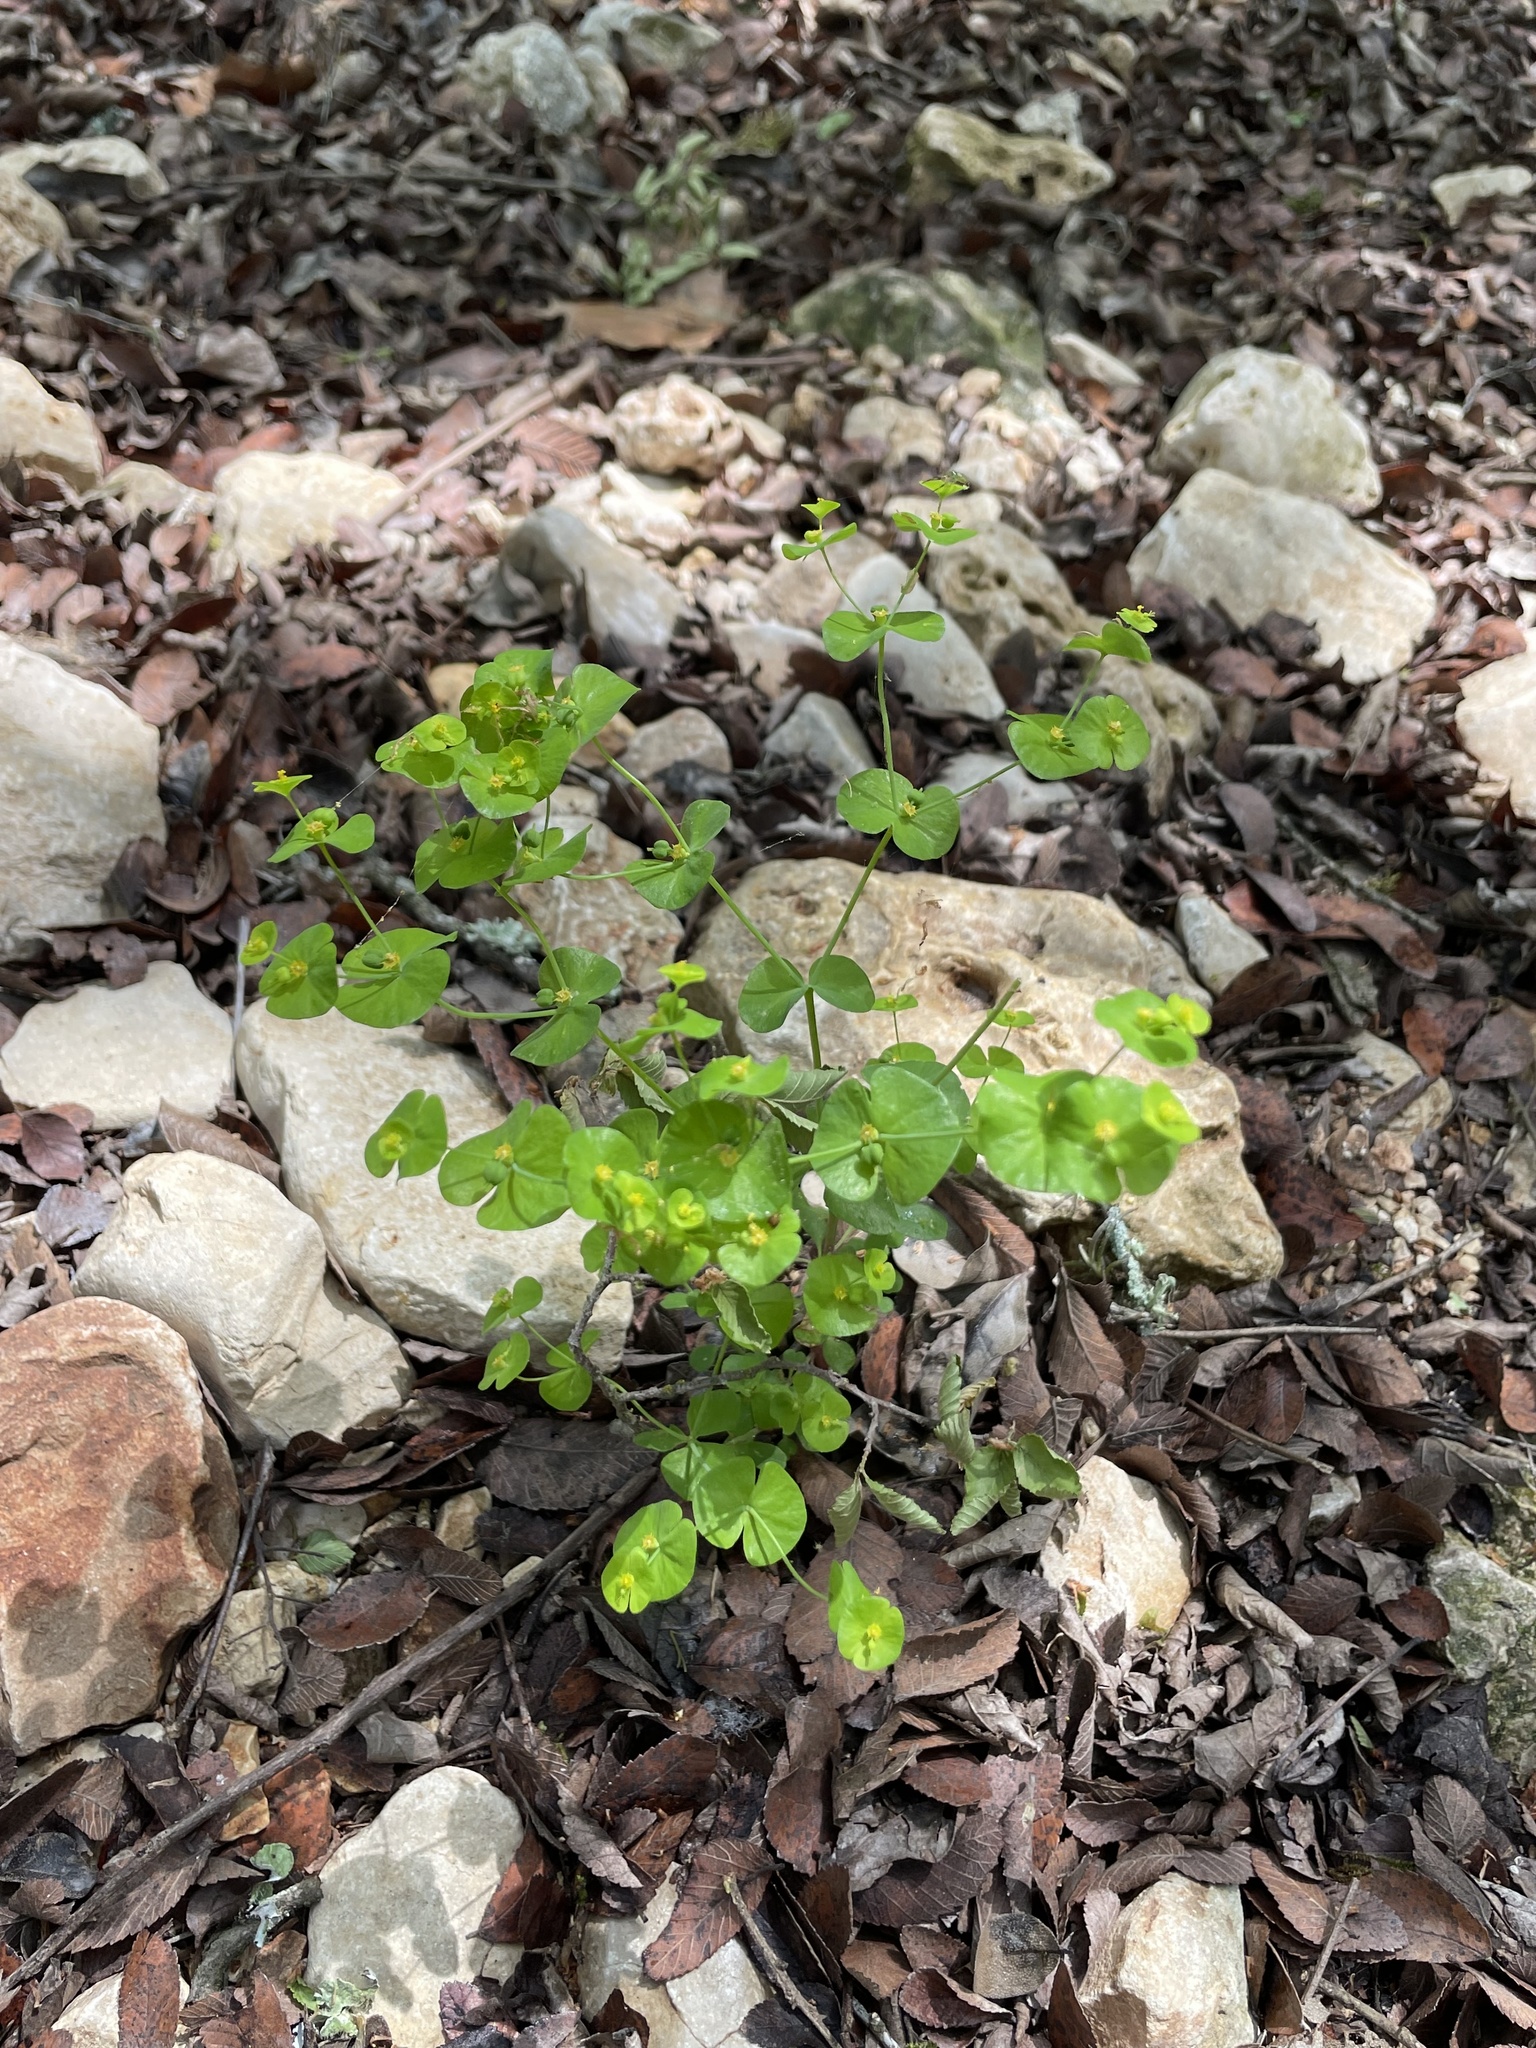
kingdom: Plantae
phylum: Tracheophyta
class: Magnoliopsida
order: Malpighiales
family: Euphorbiaceae
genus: Euphorbia
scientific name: Euphorbia roemeriana
